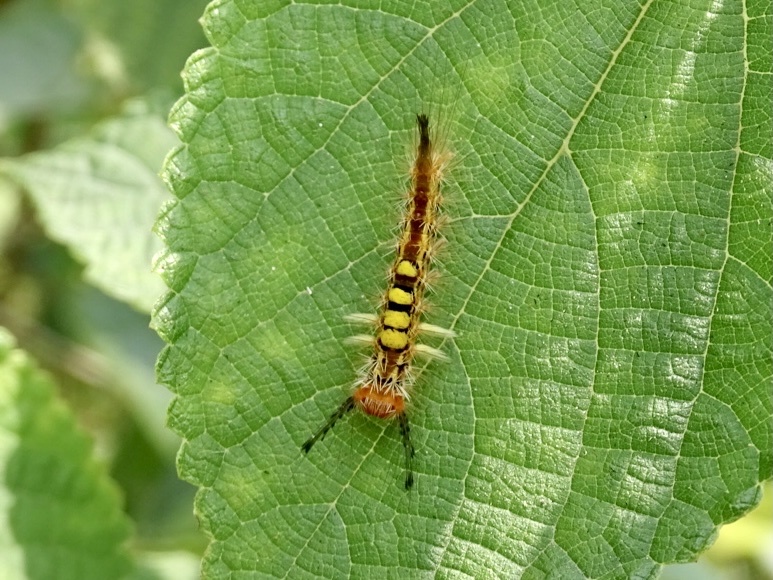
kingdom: Animalia
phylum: Arthropoda
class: Insecta
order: Lepidoptera
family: Erebidae
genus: Orgyia
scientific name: Orgyia postica
